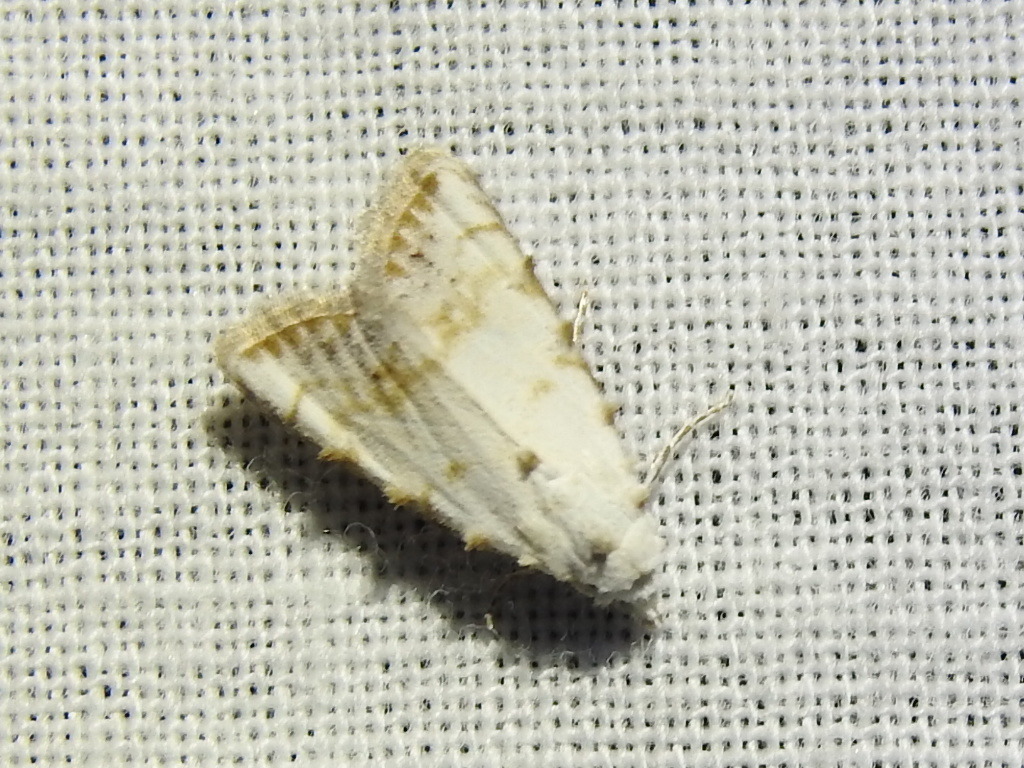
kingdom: Animalia
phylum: Arthropoda
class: Insecta
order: Lepidoptera
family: Nolidae
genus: Nola
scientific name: Nola cereella
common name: Sorghum webworm moth
